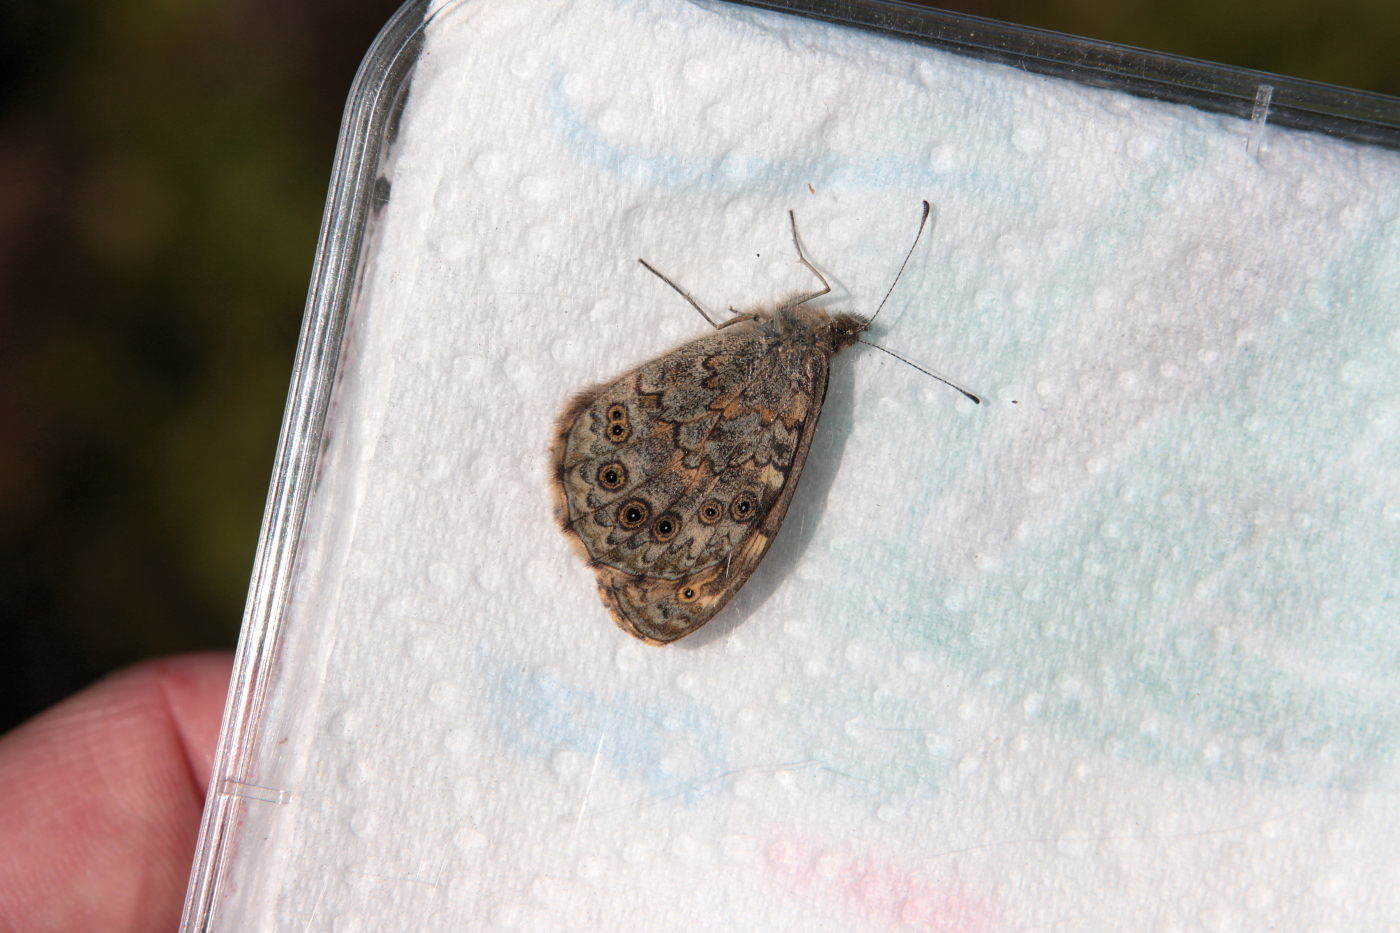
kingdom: Animalia
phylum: Arthropoda
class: Insecta
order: Lepidoptera
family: Nymphalidae
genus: Pararge
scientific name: Pararge Lasiommata megera
